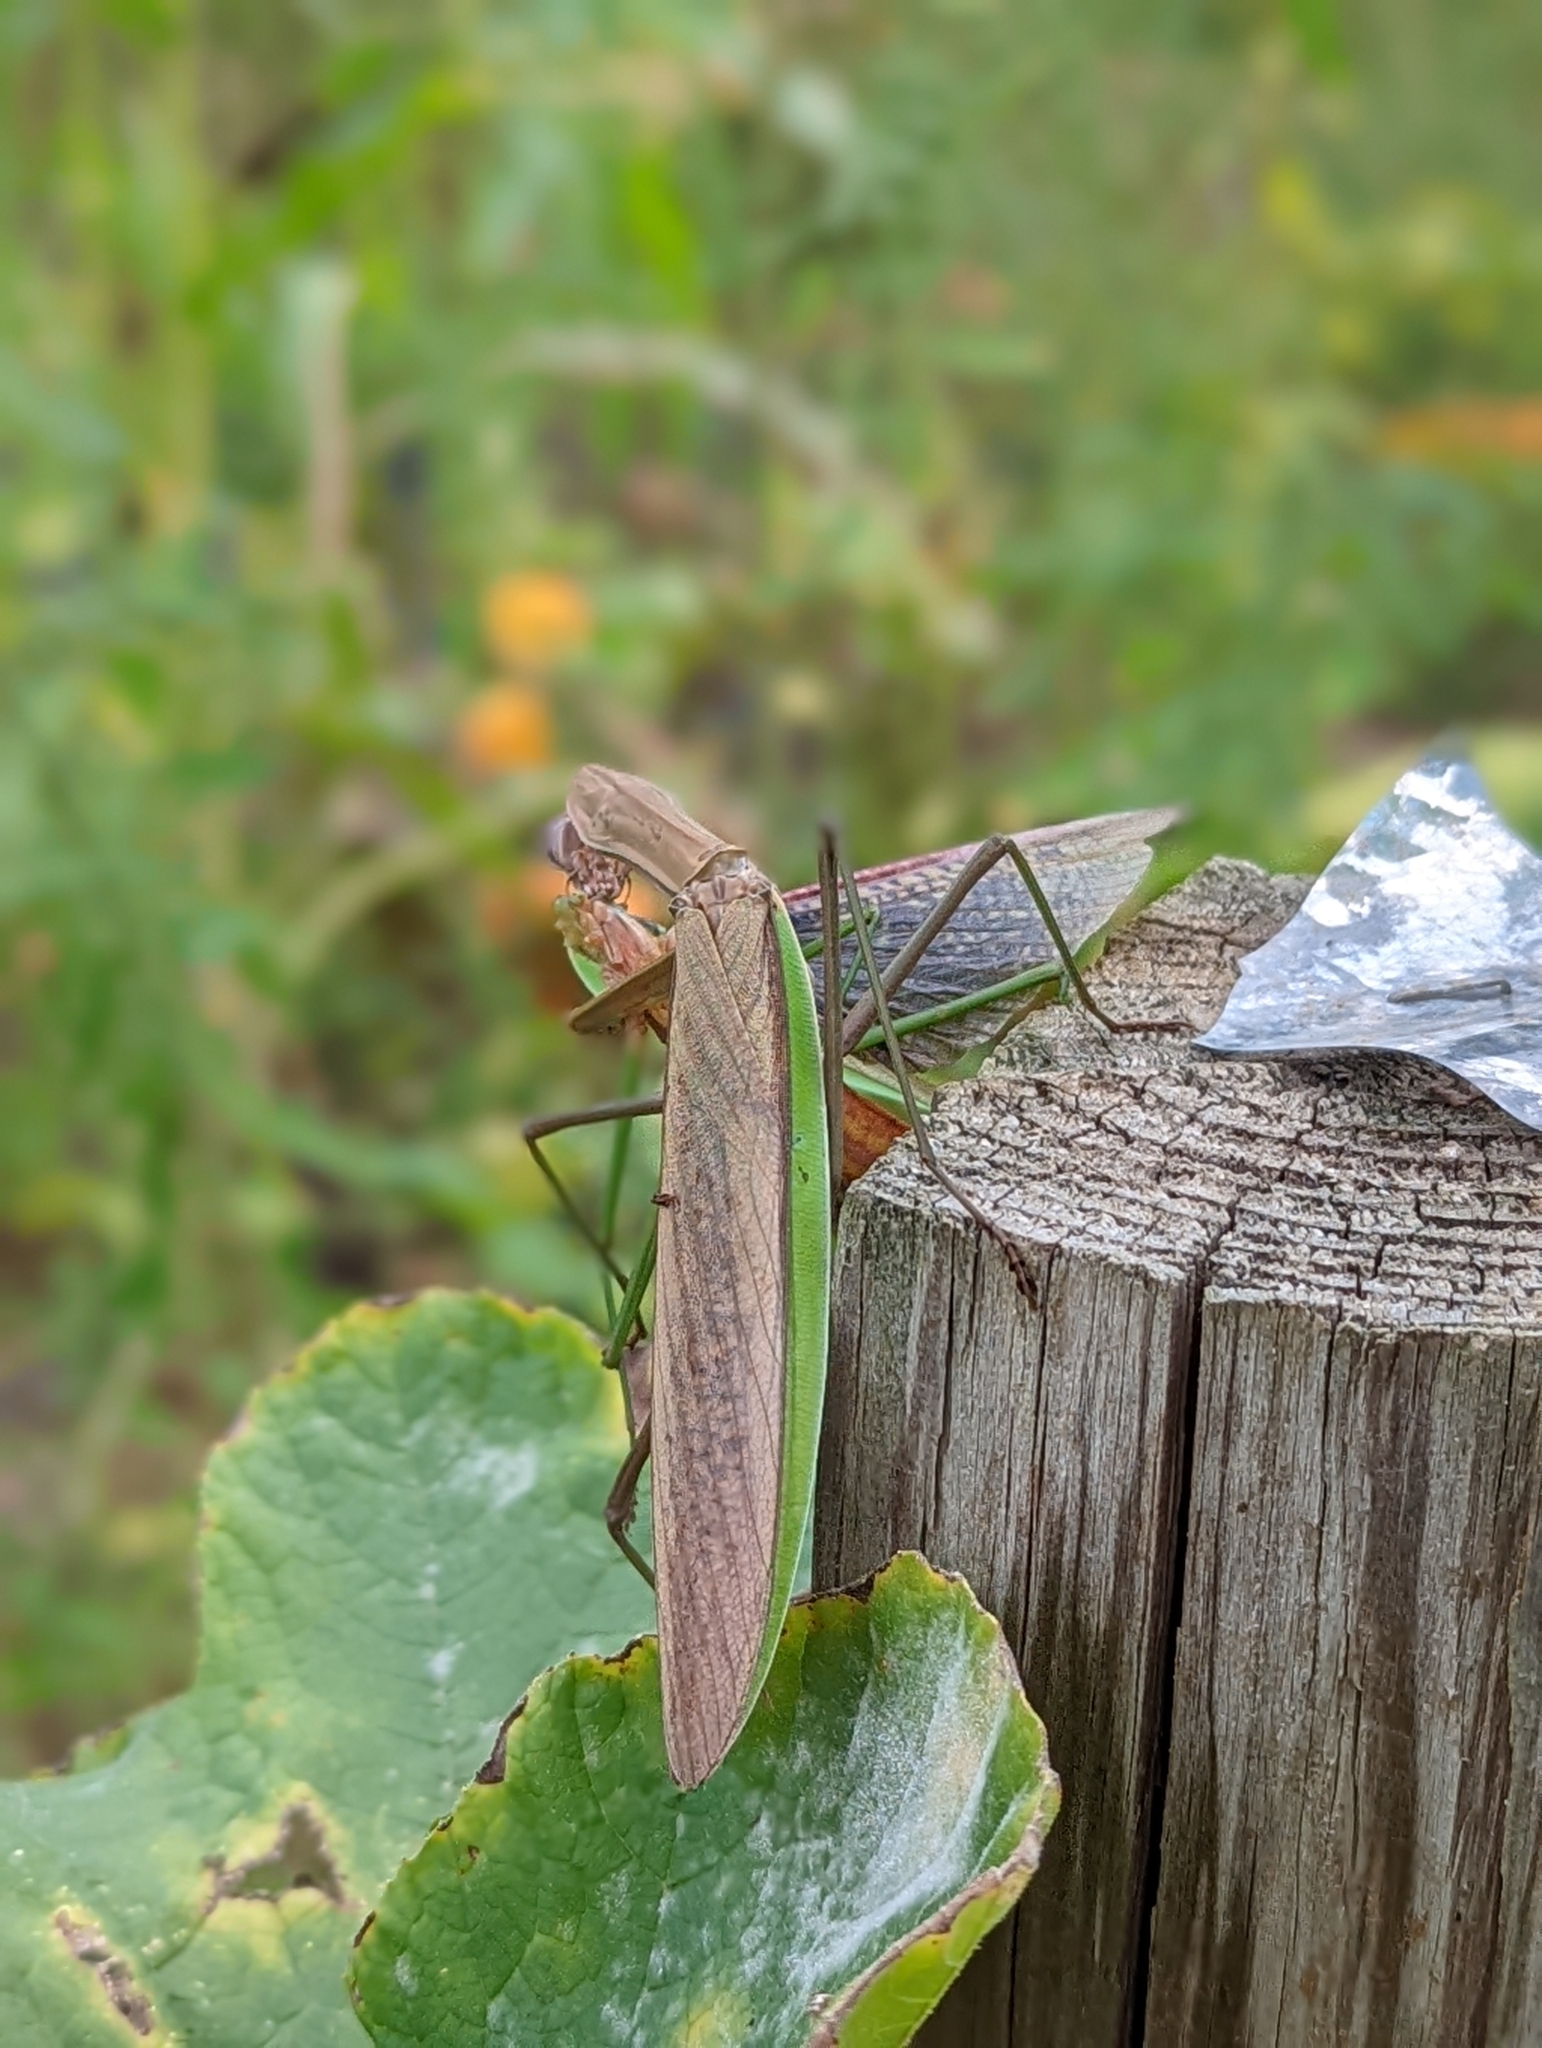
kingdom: Animalia
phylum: Arthropoda
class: Insecta
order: Mantodea
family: Mantidae
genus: Tenodera
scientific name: Tenodera sinensis
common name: Chinese mantis
